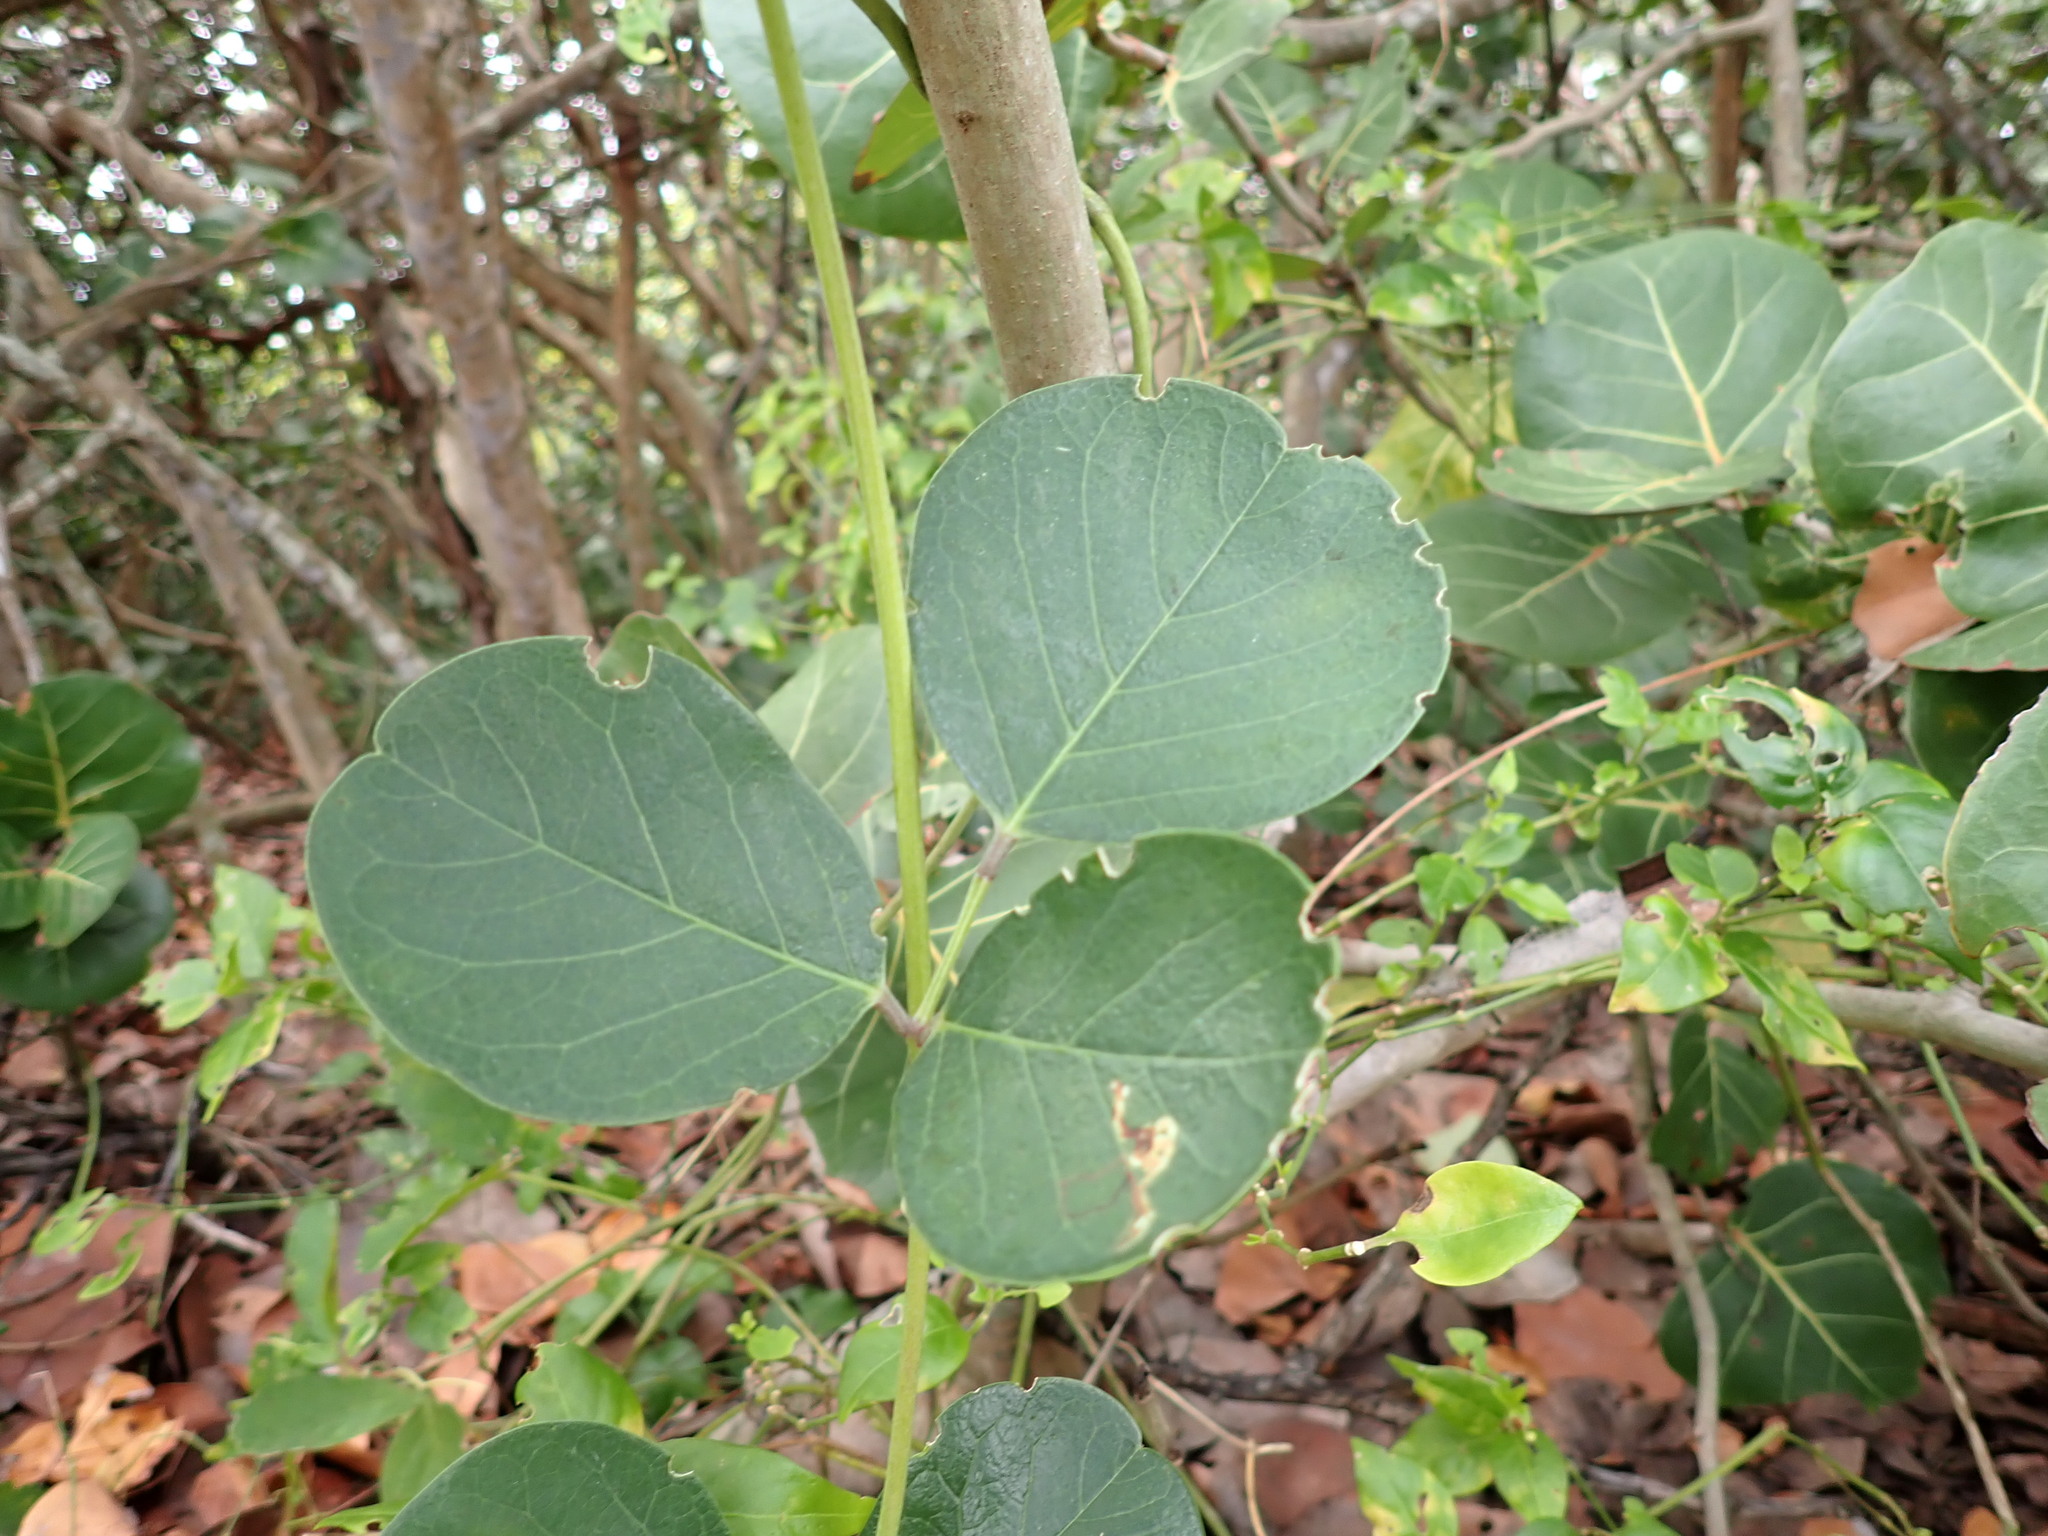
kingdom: Plantae
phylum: Tracheophyta
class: Magnoliopsida
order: Fabales
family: Fabaceae
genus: Canavalia
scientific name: Canavalia rosea
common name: Beach-bean
